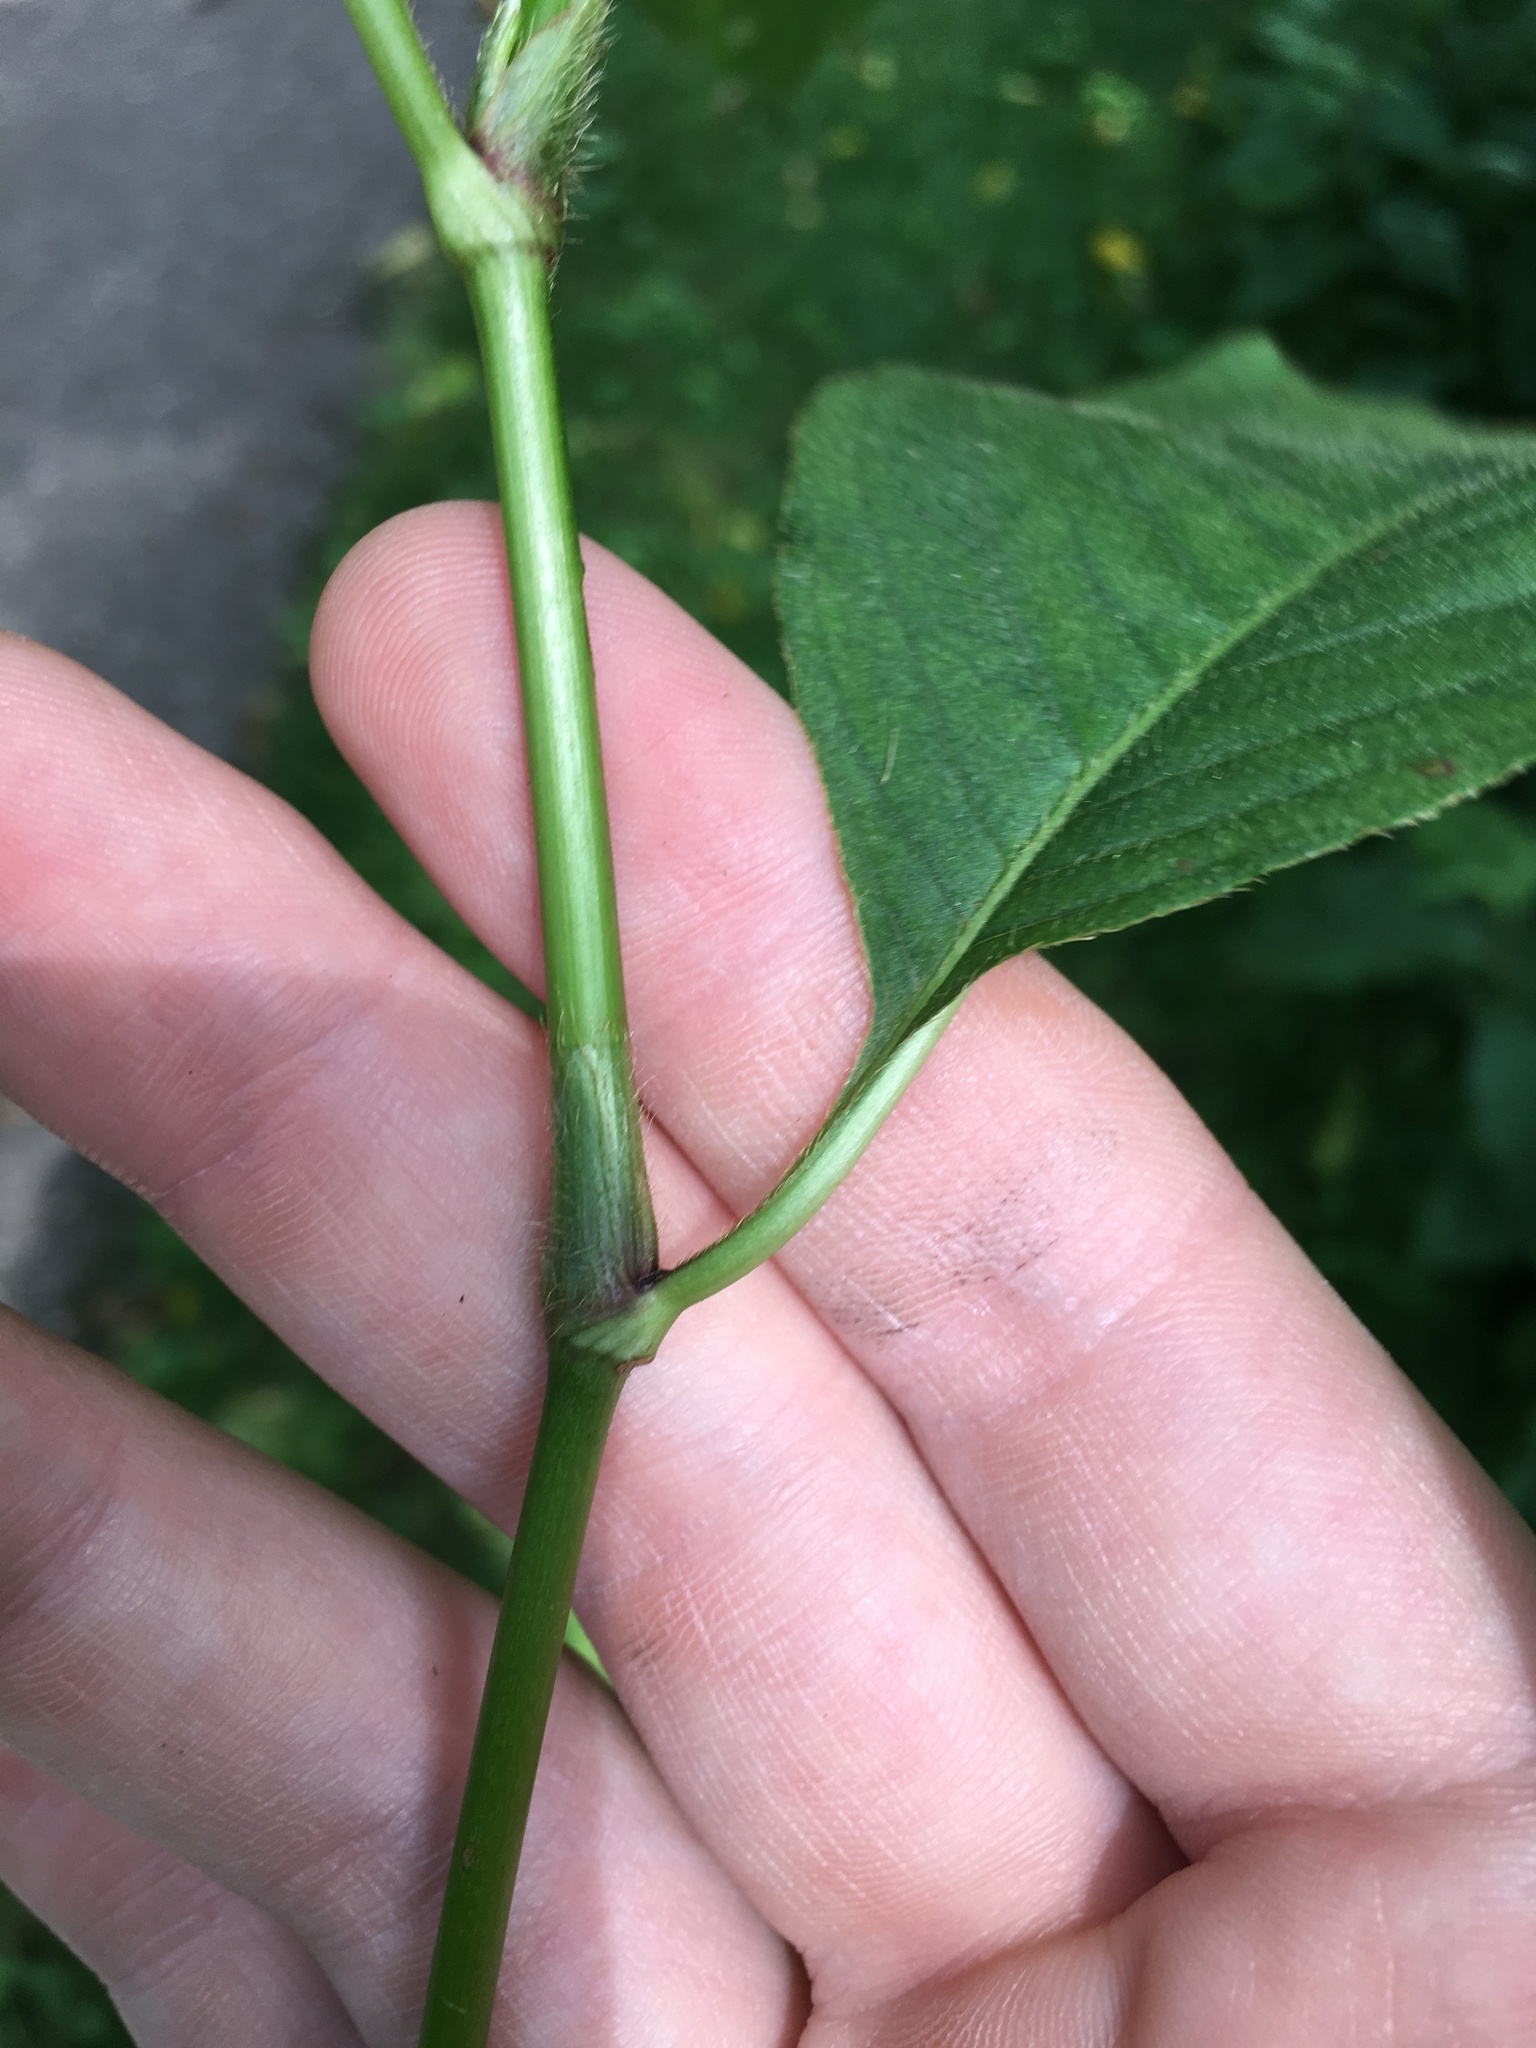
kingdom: Plantae
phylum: Tracheophyta
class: Magnoliopsida
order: Caryophyllales
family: Polygonaceae
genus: Persicaria
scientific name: Persicaria virginiana
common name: Jumpseed
